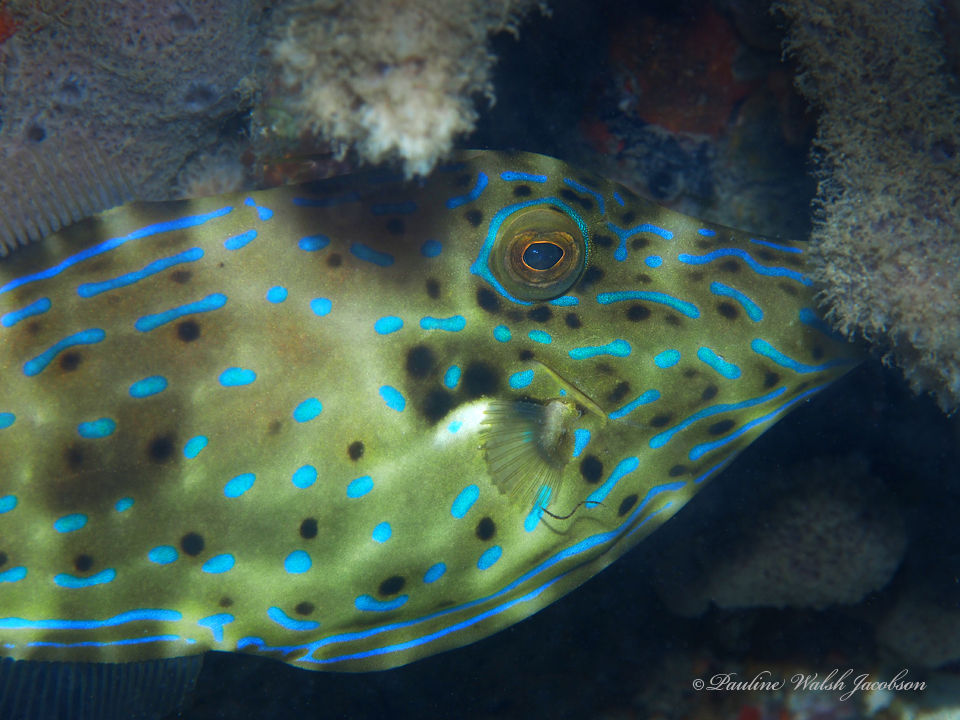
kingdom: Animalia
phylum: Chordata
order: Tetraodontiformes
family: Monacanthidae
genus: Aluterus
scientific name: Aluterus scriptus
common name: Scribbled leatherjacket filefish
